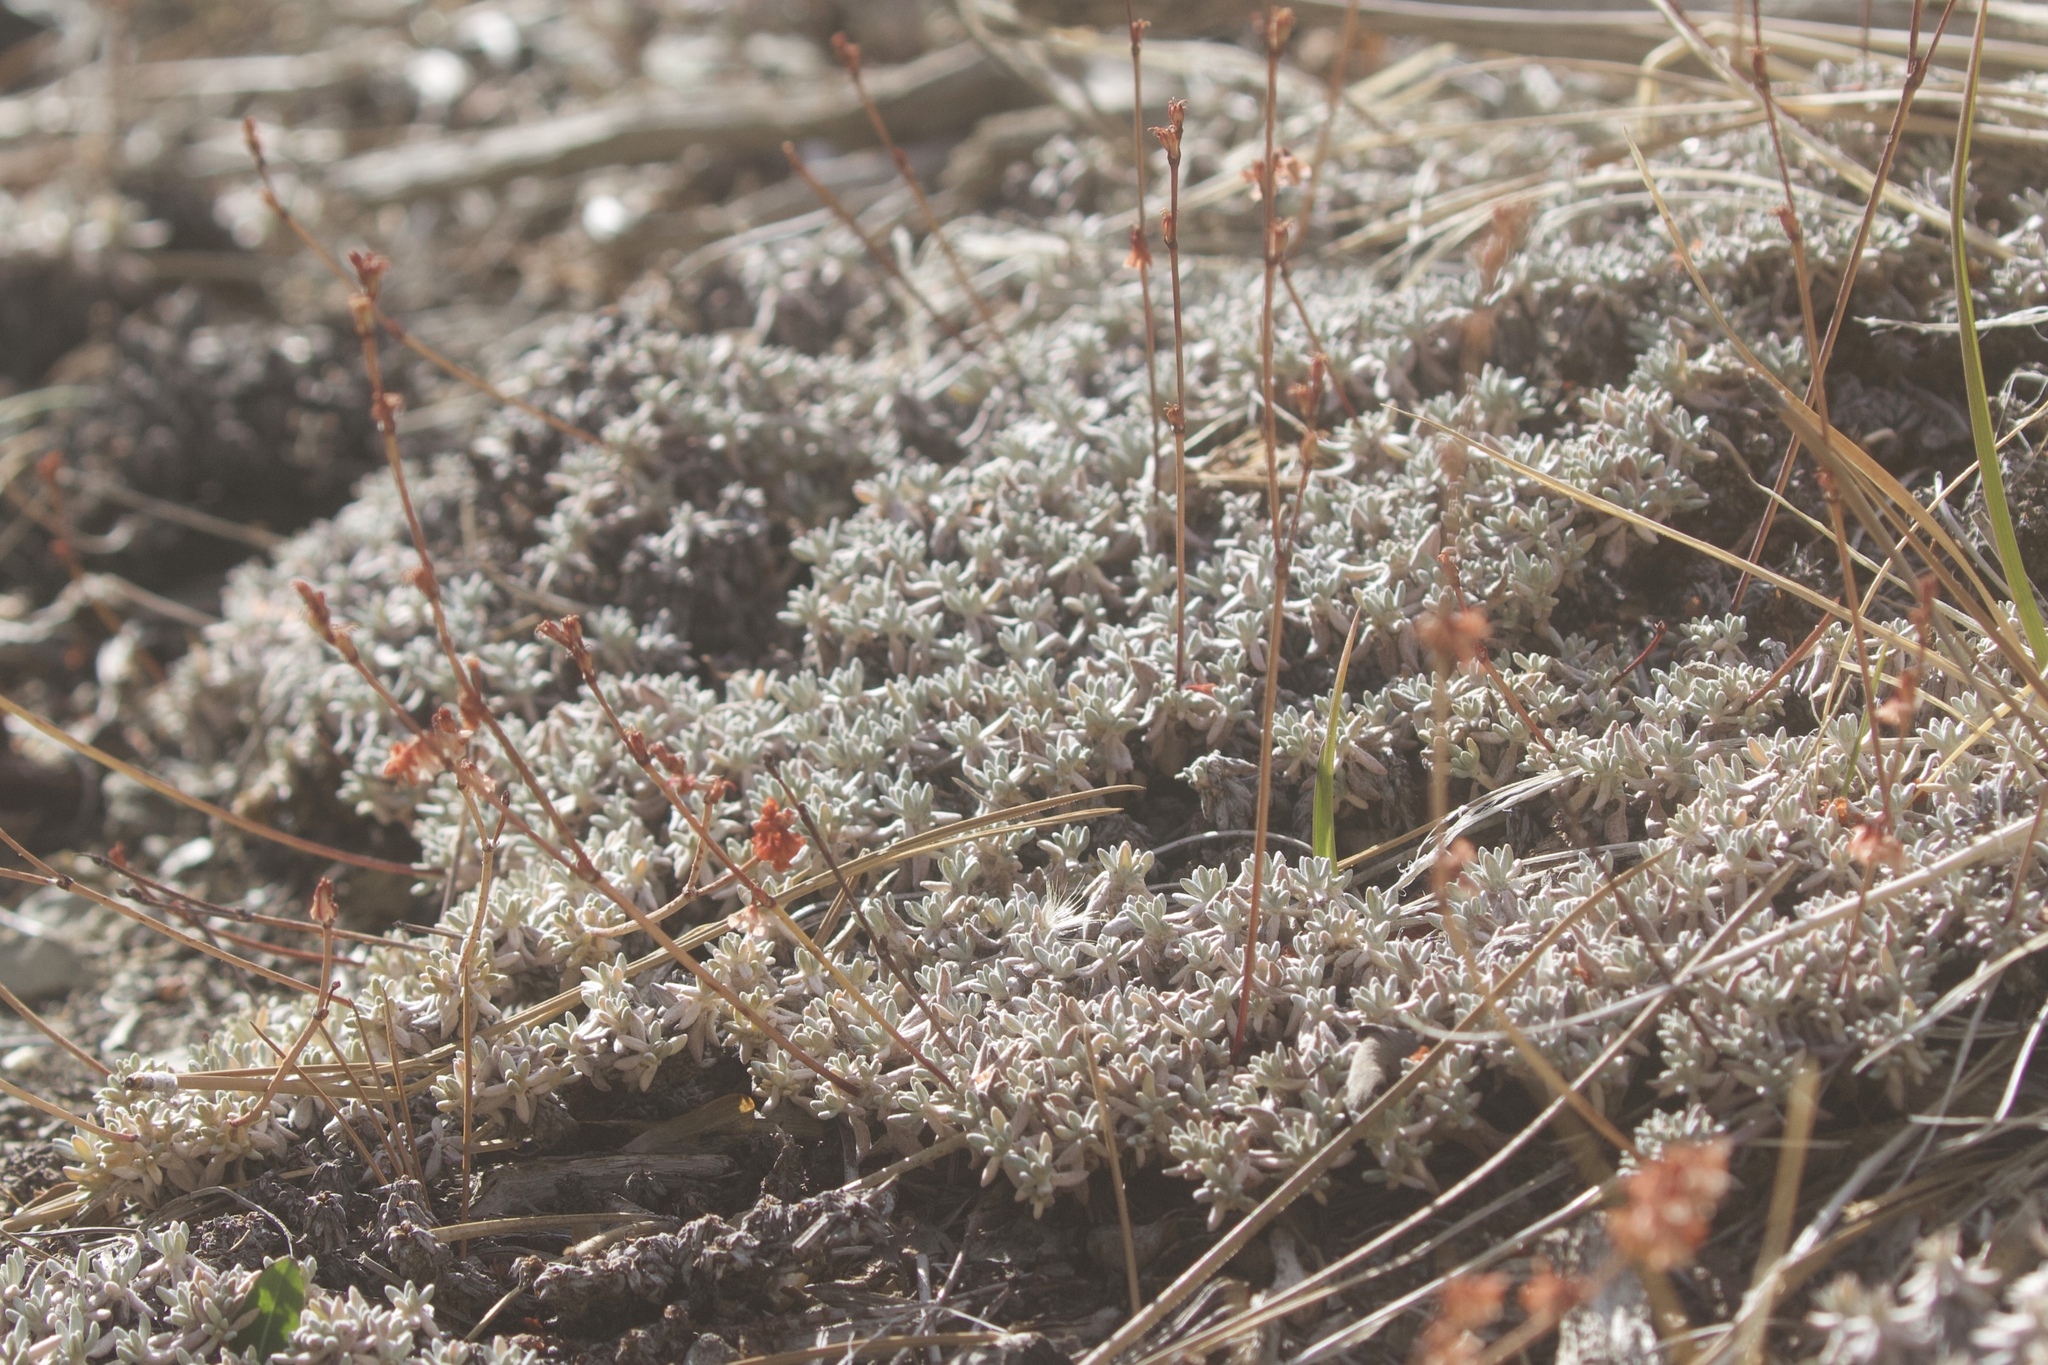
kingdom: Plantae
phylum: Tracheophyta
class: Magnoliopsida
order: Caryophyllales
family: Polygonaceae
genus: Eriogonum
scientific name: Eriogonum wrightii
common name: Bastard-sage
